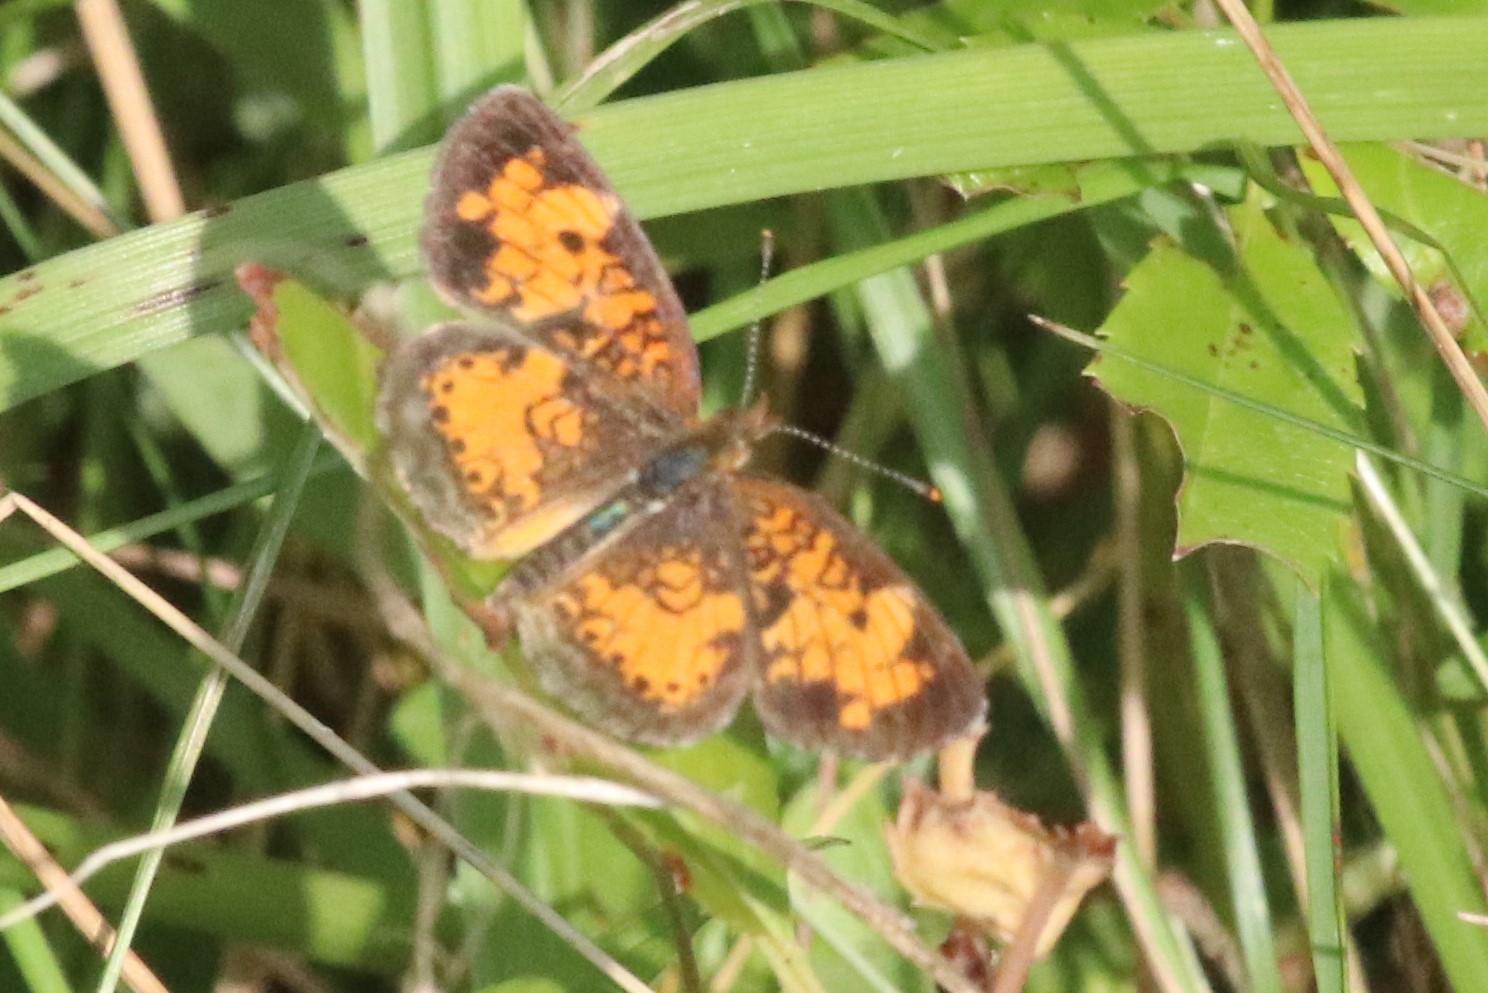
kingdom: Animalia
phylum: Arthropoda
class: Insecta
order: Lepidoptera
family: Nymphalidae
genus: Phyciodes
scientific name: Phyciodes tharos
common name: Pearl crescent
